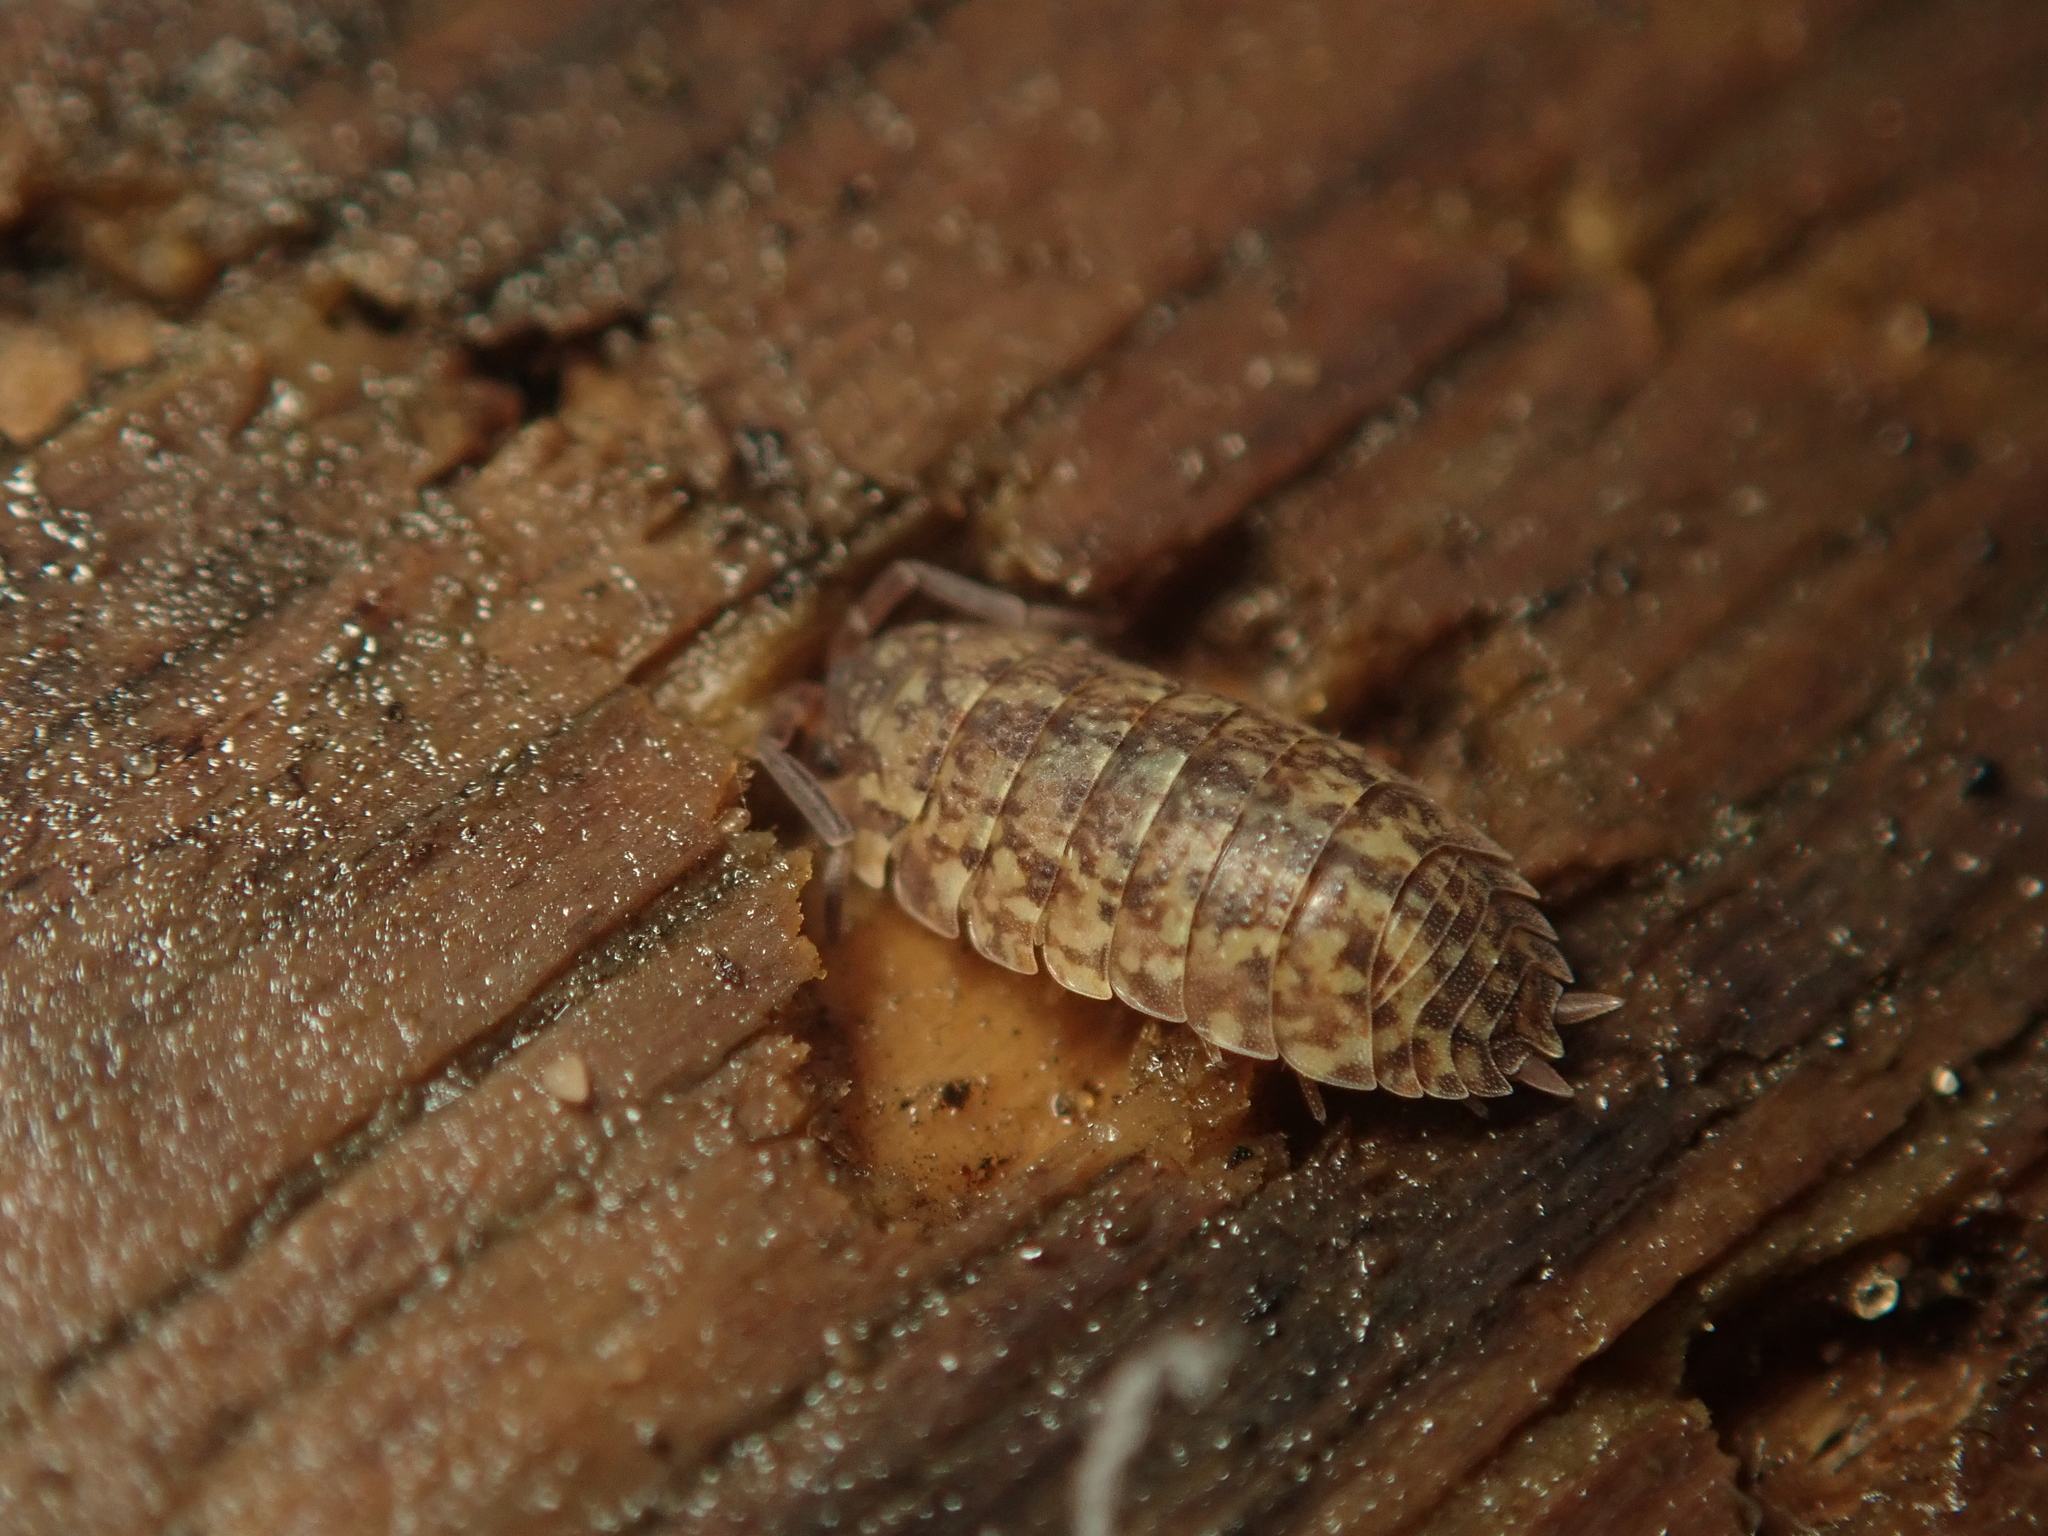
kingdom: Animalia
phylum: Arthropoda
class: Malacostraca
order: Isopoda
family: Trachelipodidae
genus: Porcellium
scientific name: Porcellium collicola
